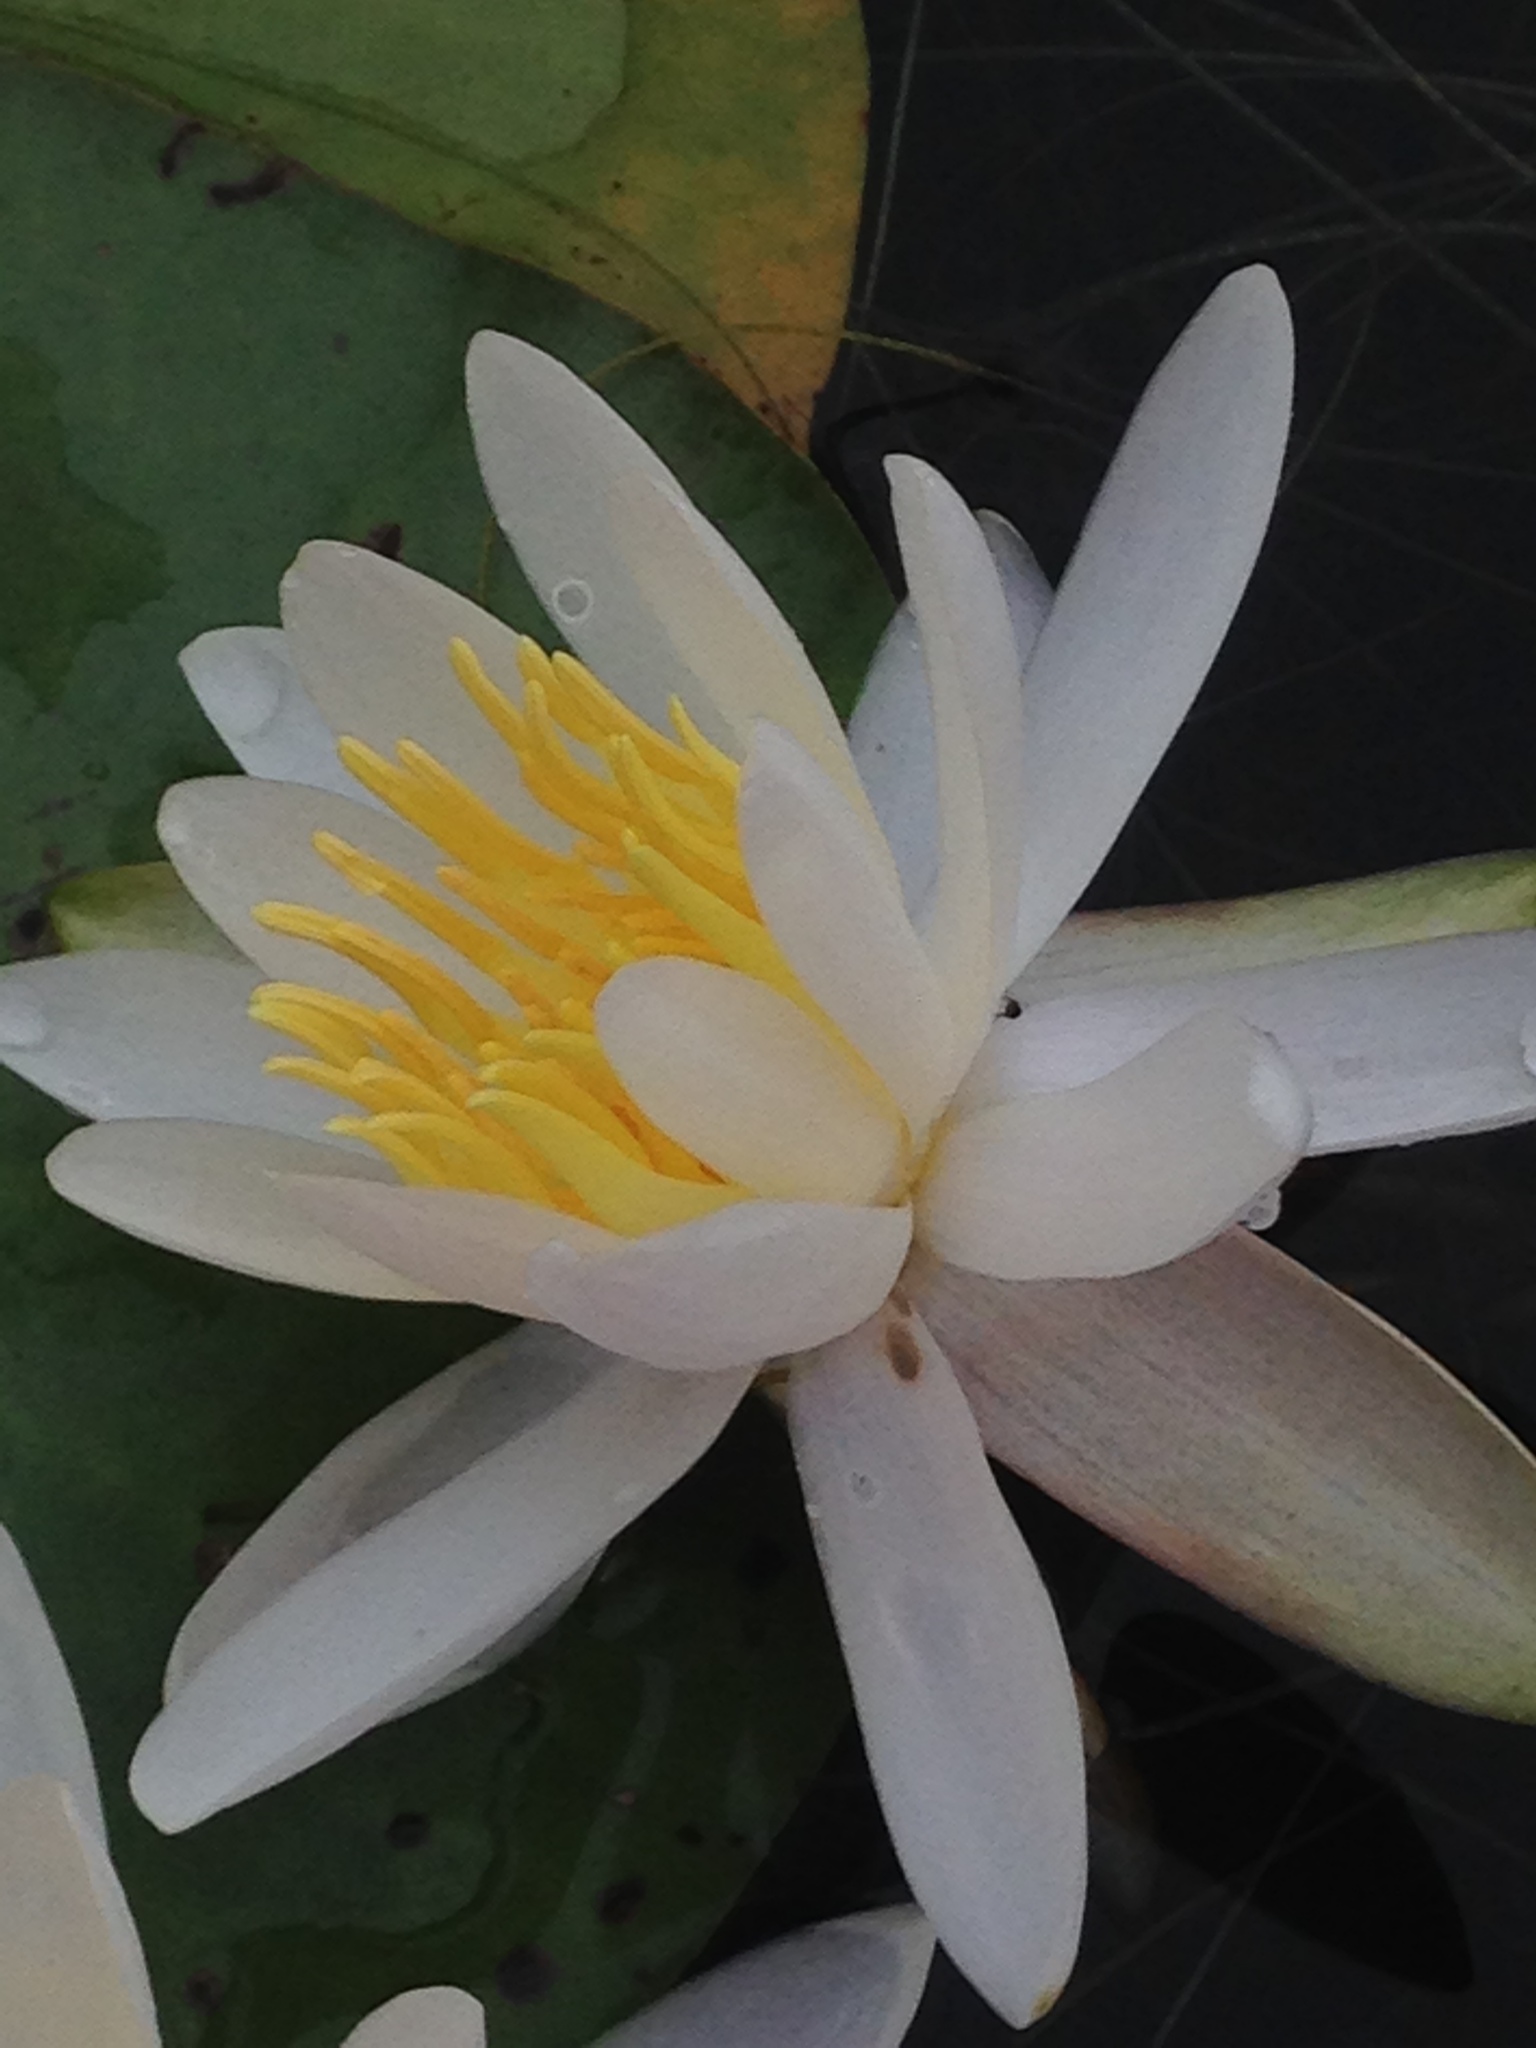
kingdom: Plantae
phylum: Tracheophyta
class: Magnoliopsida
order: Nymphaeales
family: Nymphaeaceae
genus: Nymphaea
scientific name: Nymphaea odorata
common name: Fragrant water-lily
